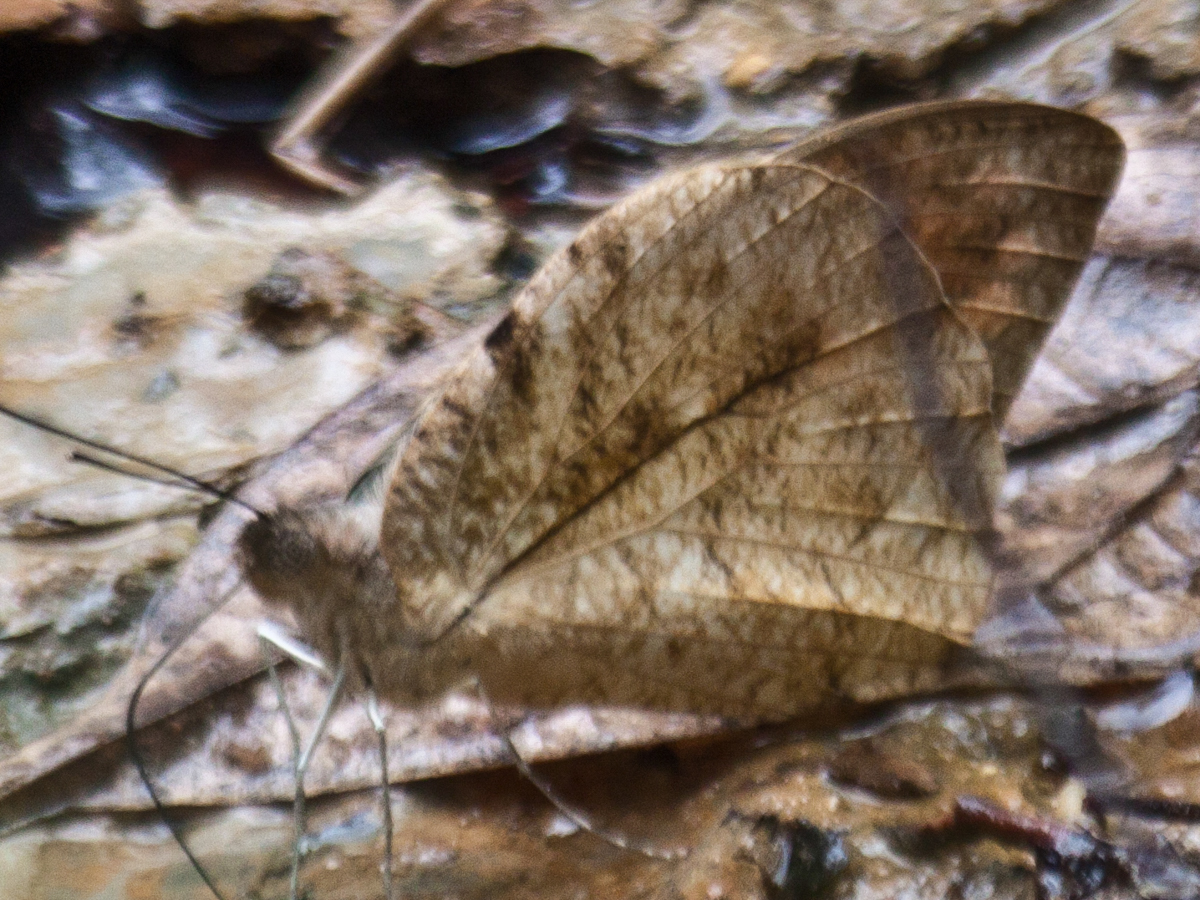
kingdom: Animalia
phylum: Arthropoda
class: Insecta
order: Lepidoptera
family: Pieridae
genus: Hebomoia
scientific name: Hebomoia glaucippe
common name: Great orange tip
